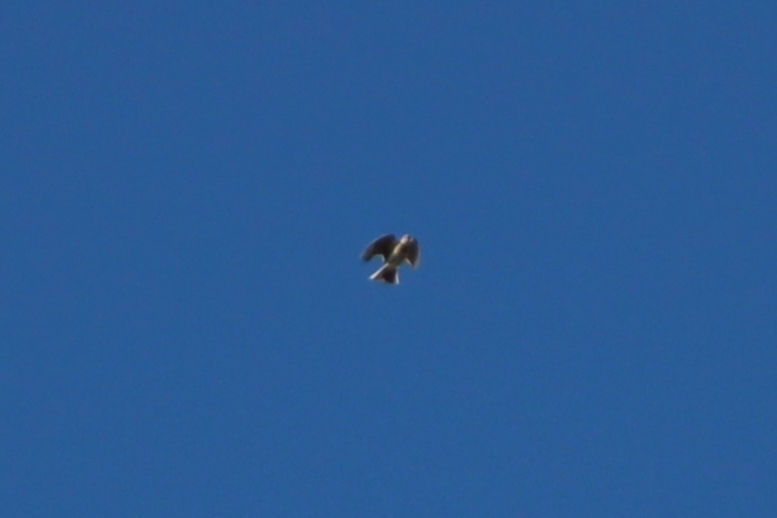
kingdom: Animalia
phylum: Chordata
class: Aves
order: Passeriformes
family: Alaudidae
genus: Alauda
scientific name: Alauda arvensis
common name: Eurasian skylark
